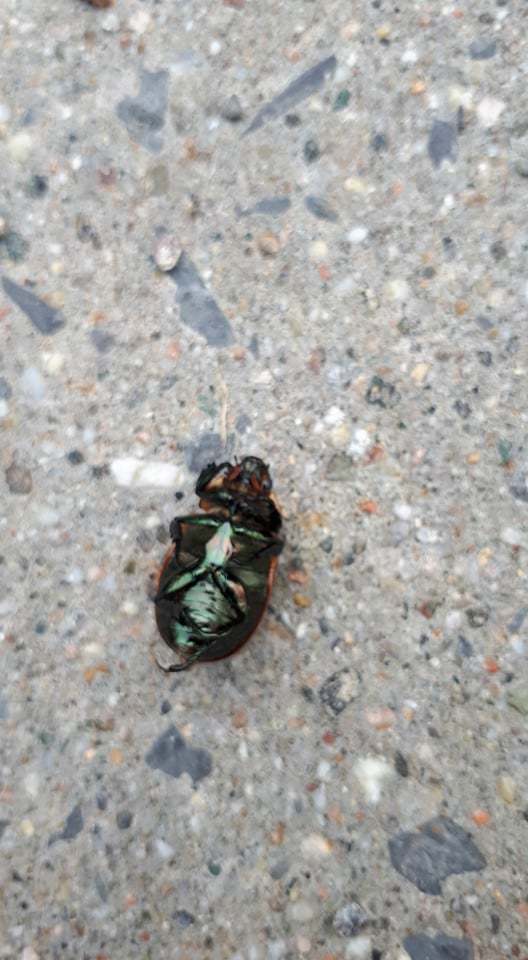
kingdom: Animalia
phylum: Arthropoda
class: Insecta
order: Coleoptera
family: Scarabaeidae
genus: Pelidnota
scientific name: Pelidnota punctata
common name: Grapevine beetle
